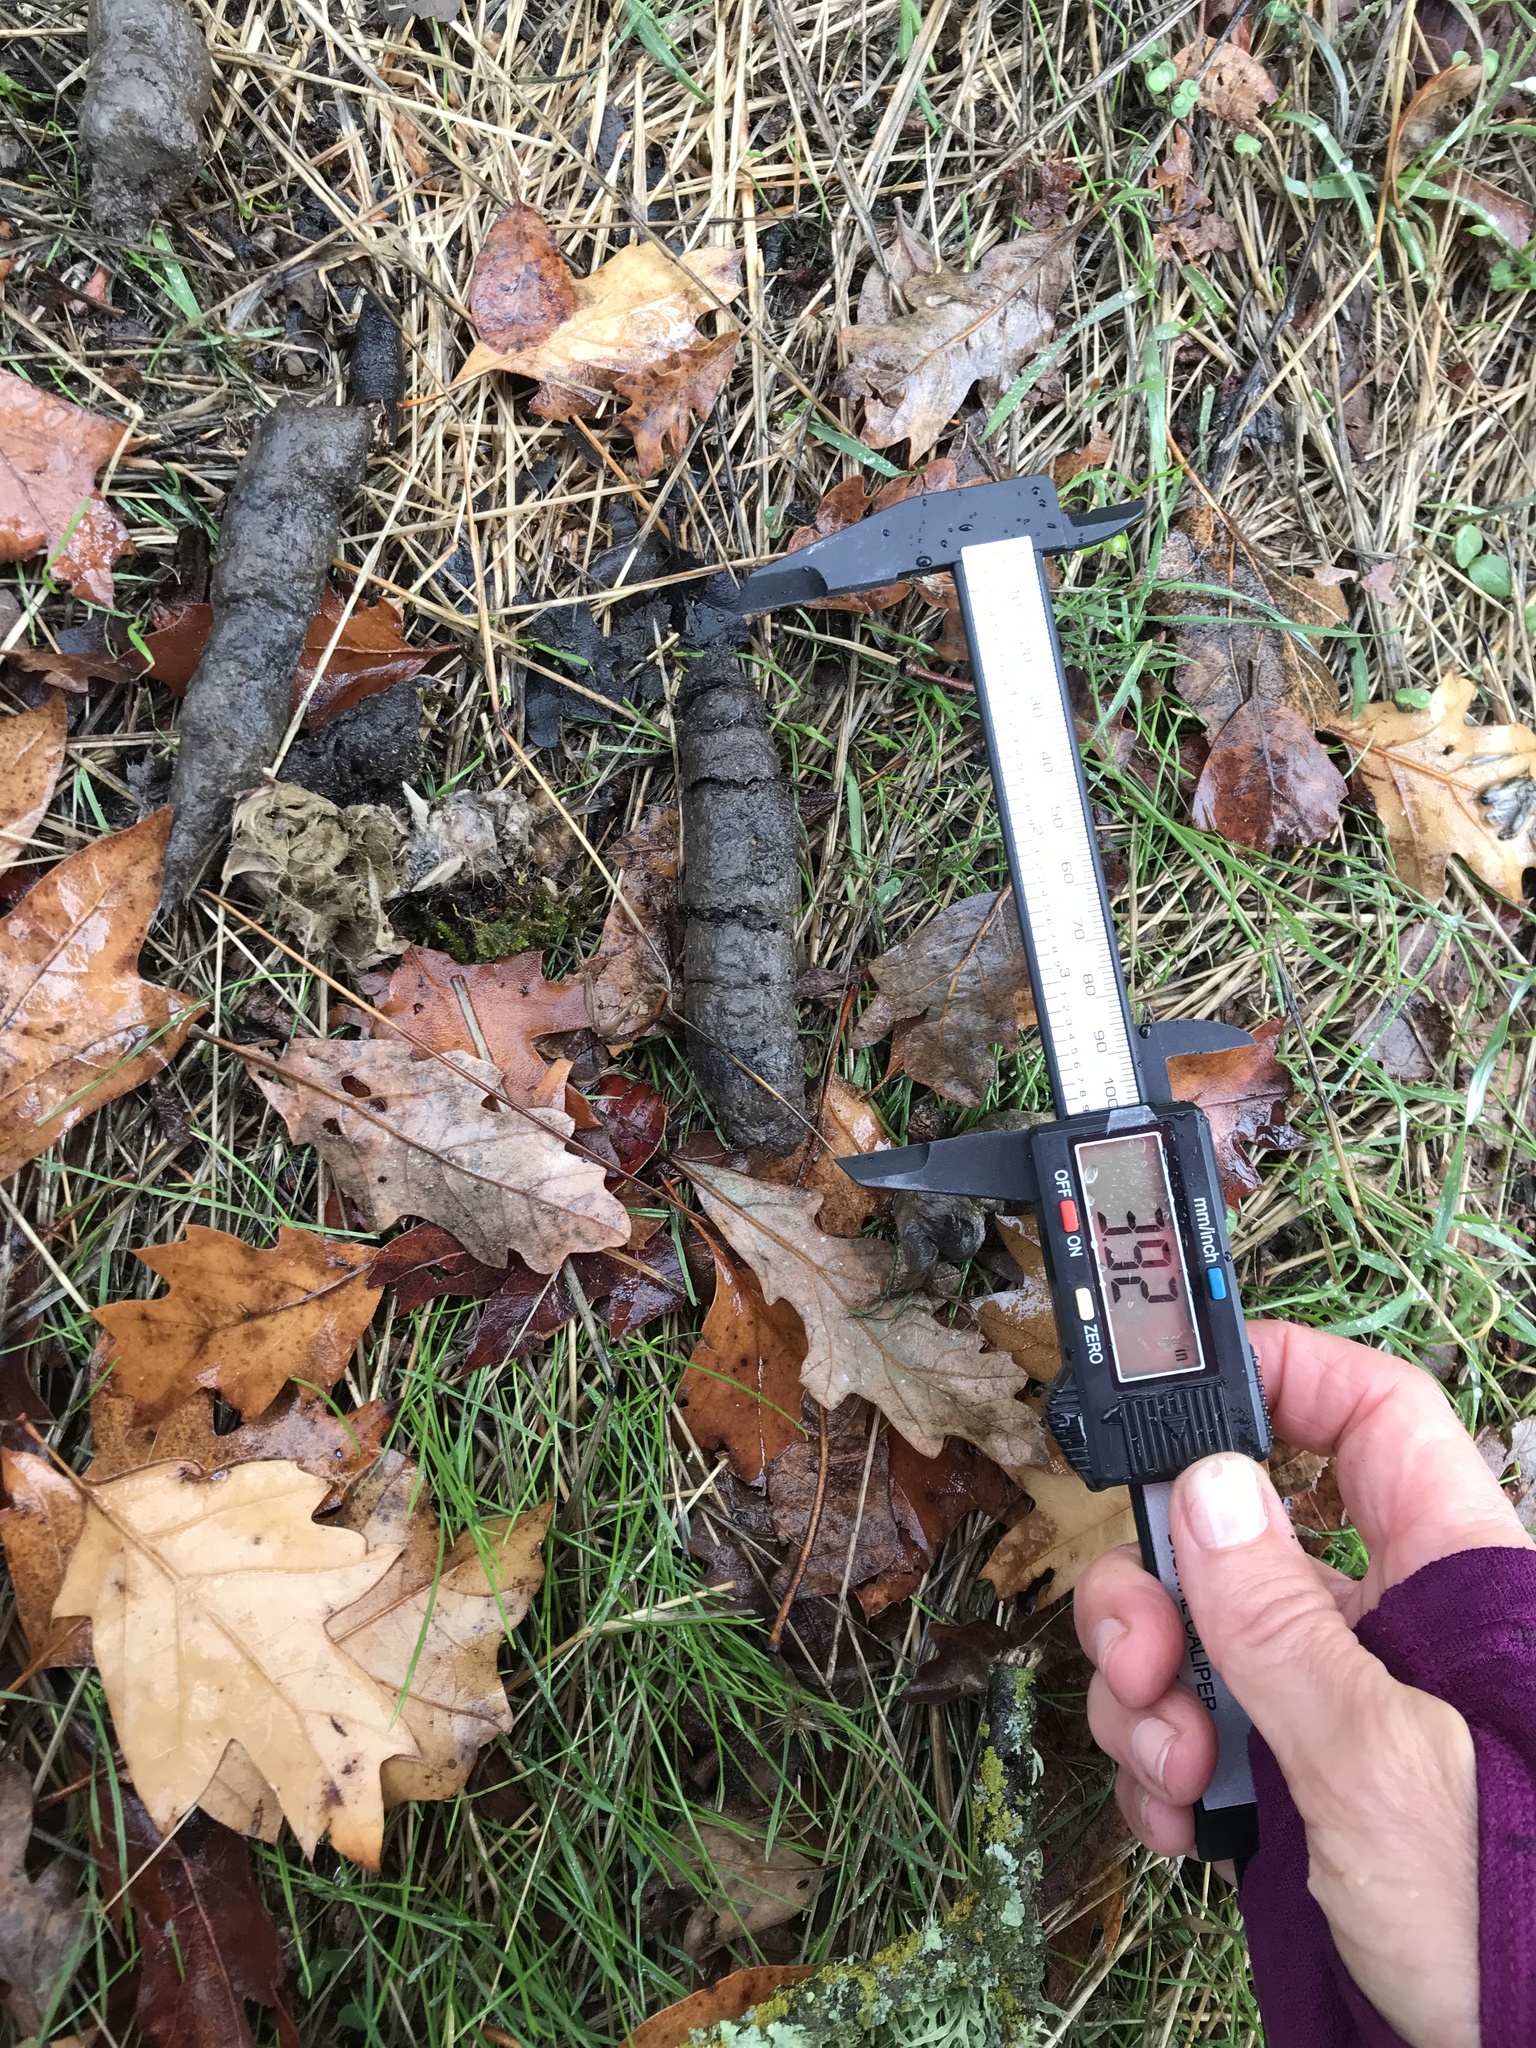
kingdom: Animalia
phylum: Chordata
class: Mammalia
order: Carnivora
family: Felidae
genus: Lynx
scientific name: Lynx rufus
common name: Bobcat
